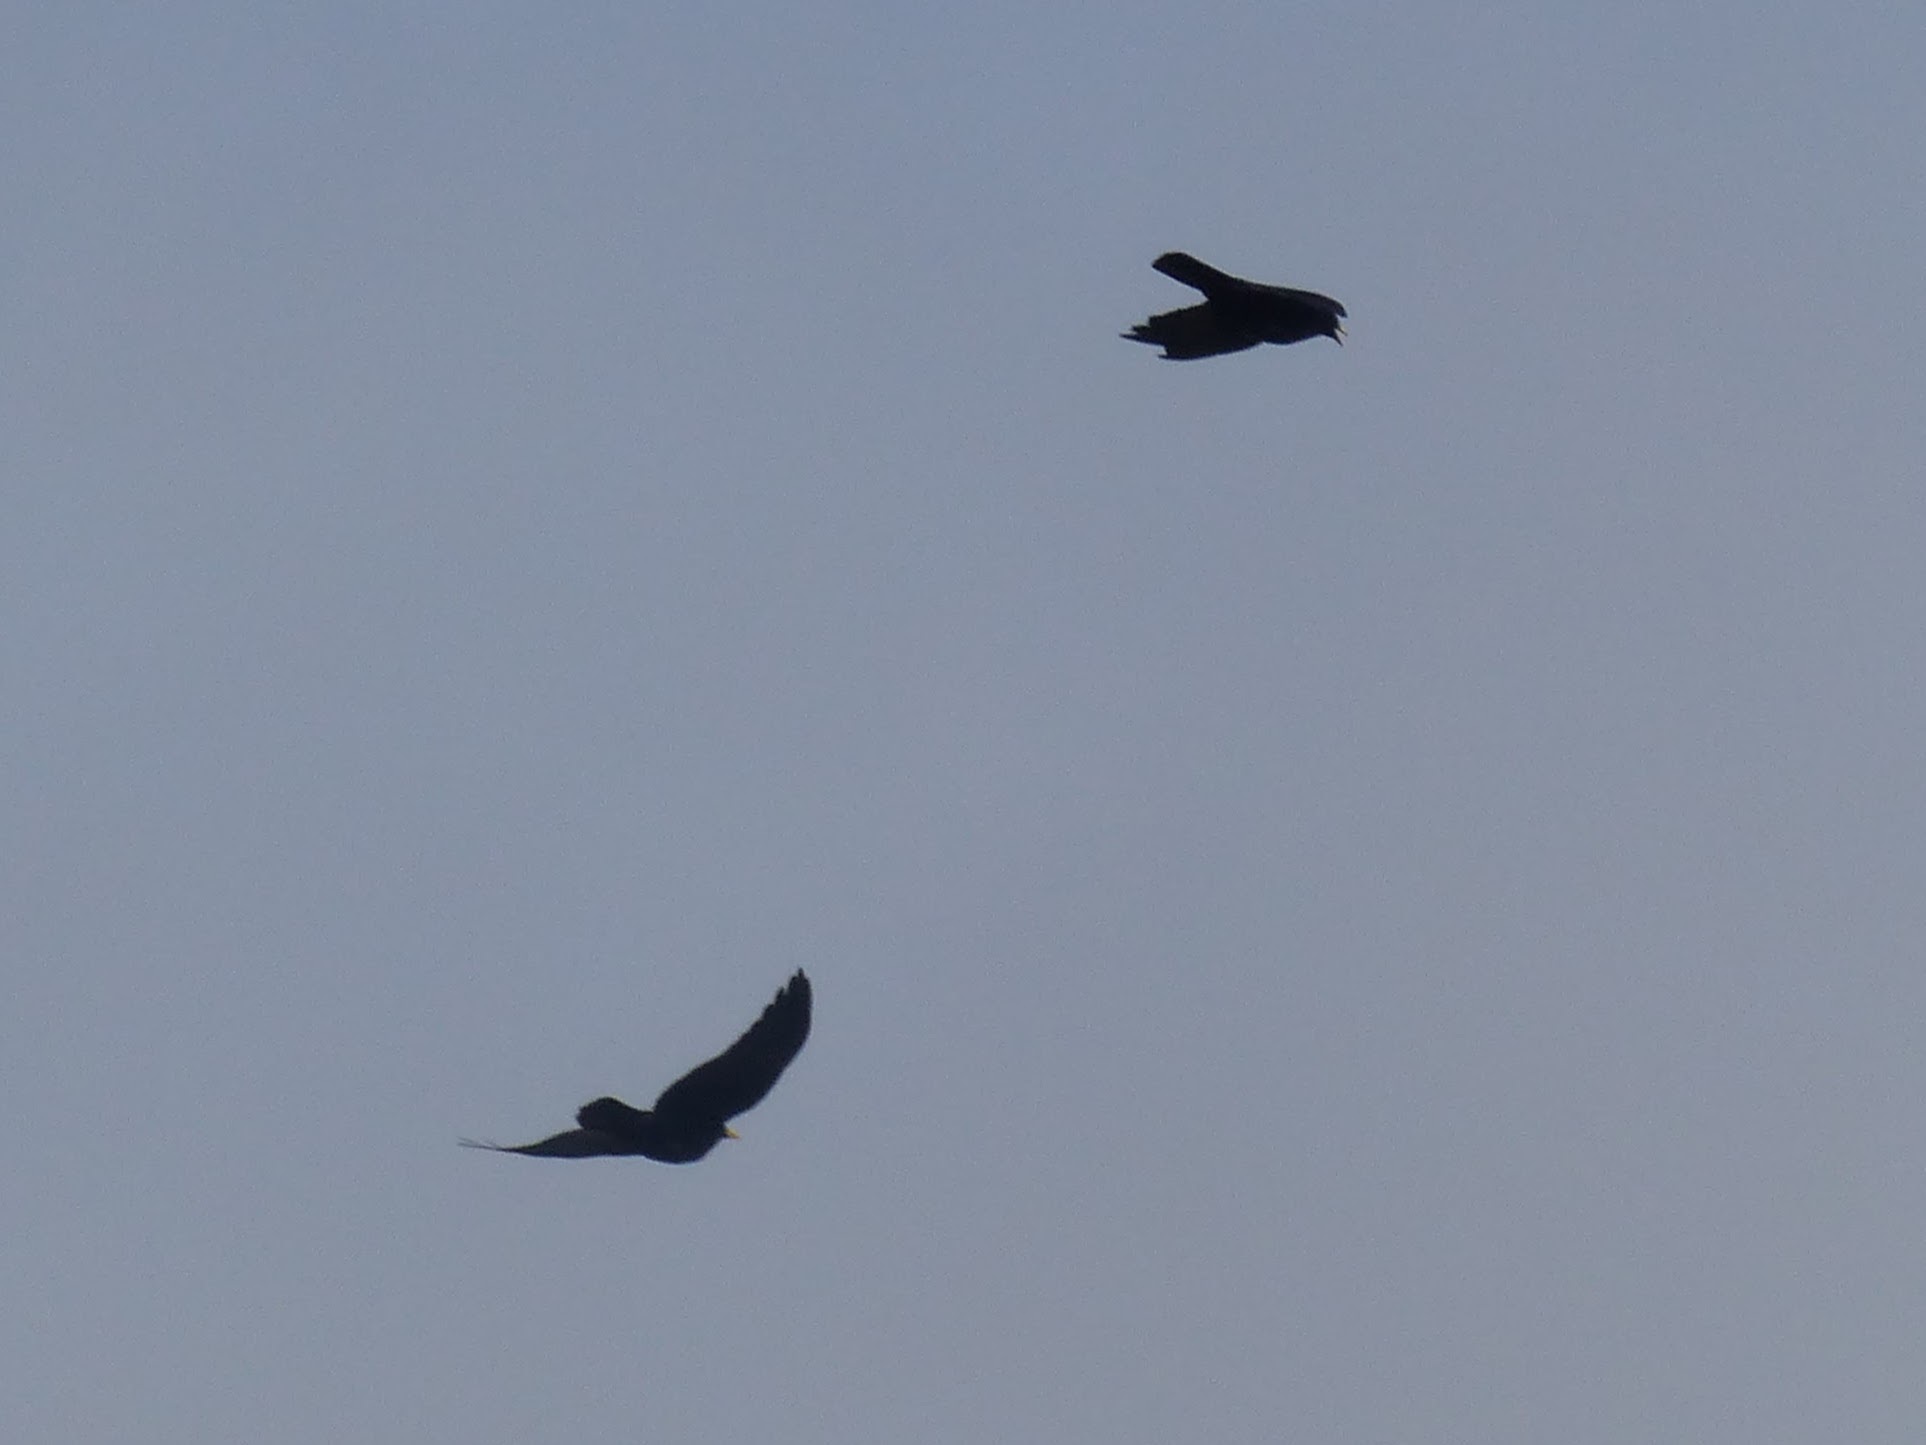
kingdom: Animalia
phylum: Chordata
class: Aves
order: Passeriformes
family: Corvidae
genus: Pyrrhocorax
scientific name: Pyrrhocorax graculus
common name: Alpine chough
